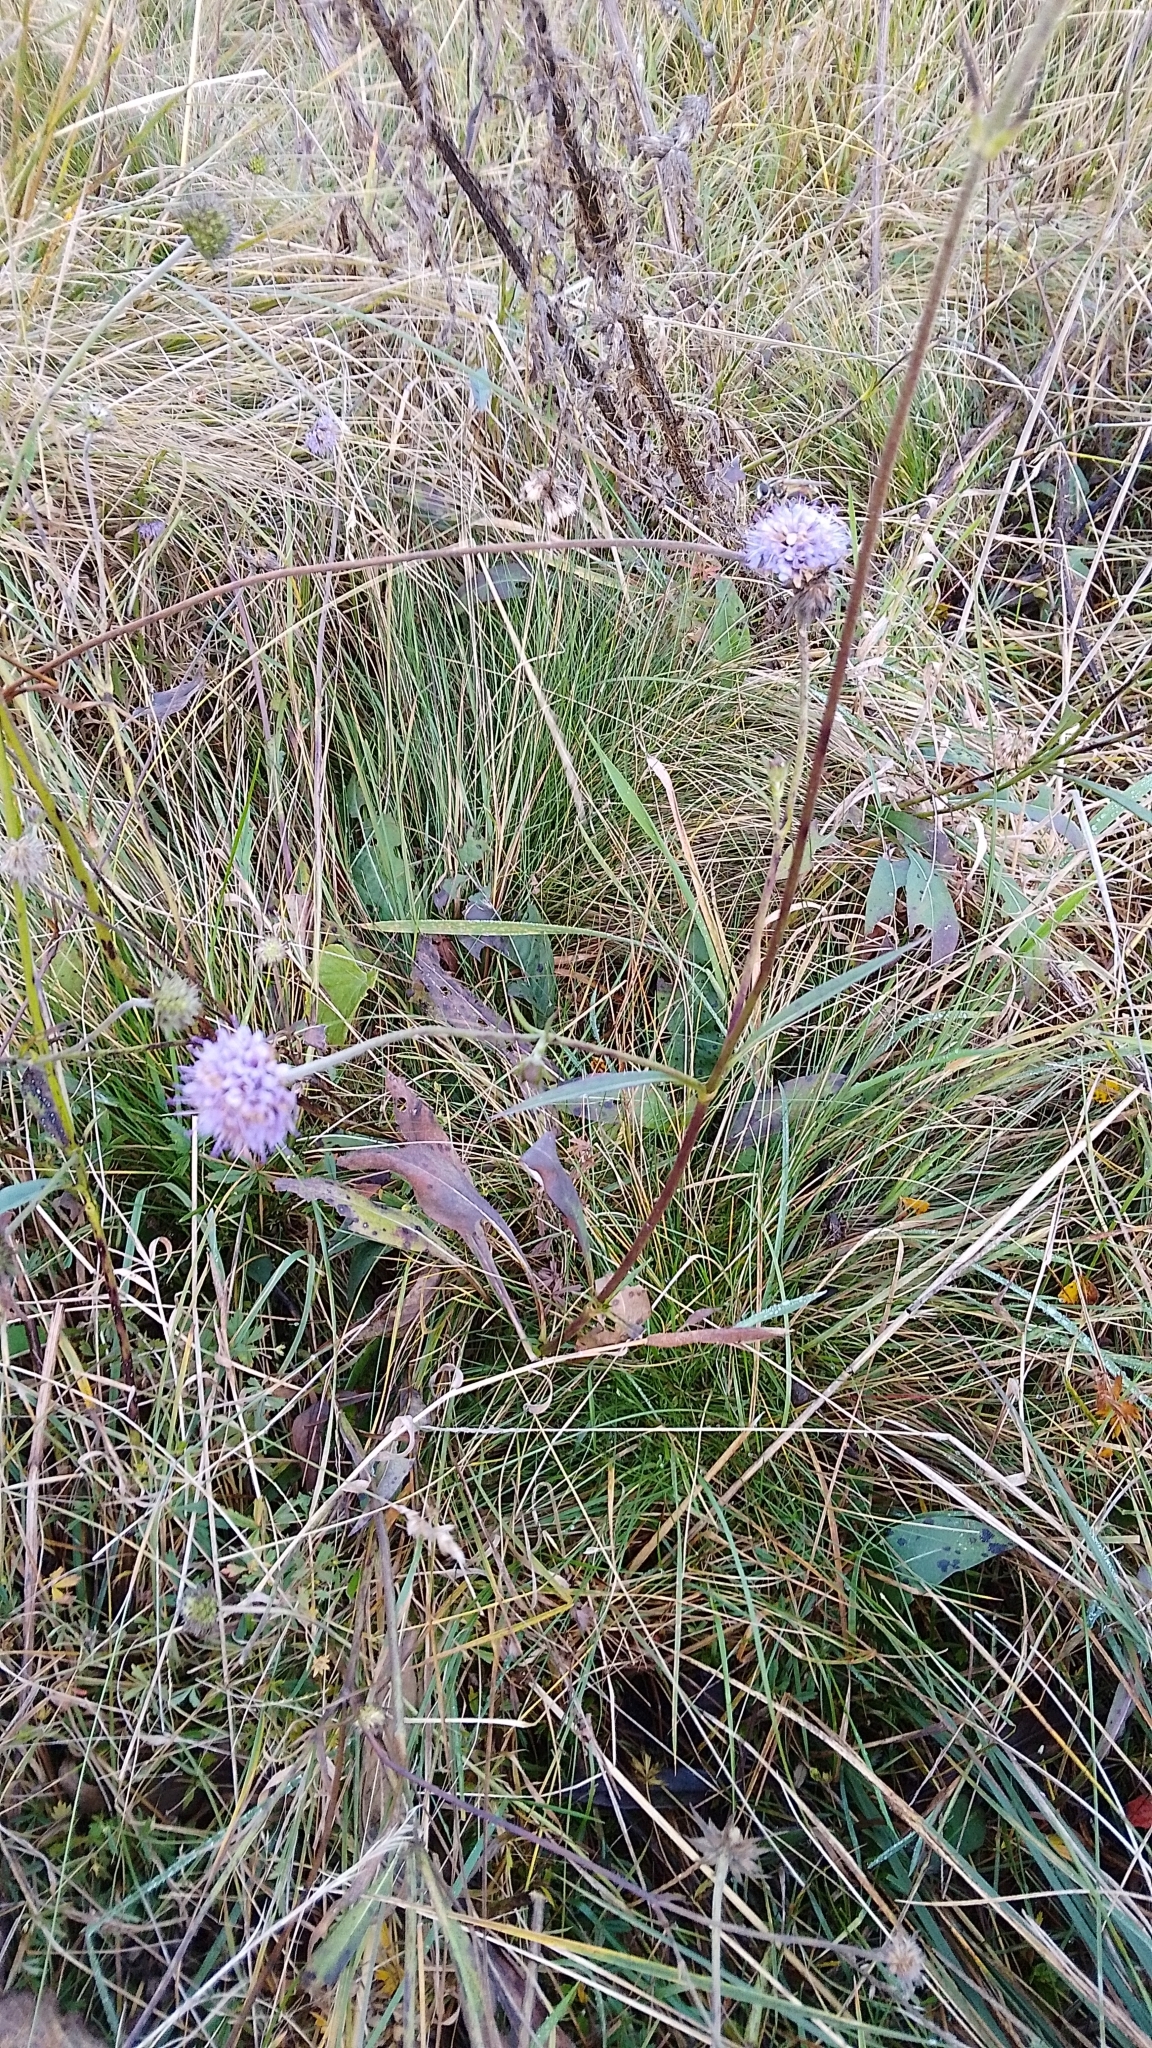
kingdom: Plantae
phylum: Tracheophyta
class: Magnoliopsida
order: Dipsacales
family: Caprifoliaceae
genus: Succisa
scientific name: Succisa pratensis
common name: Devil's-bit
